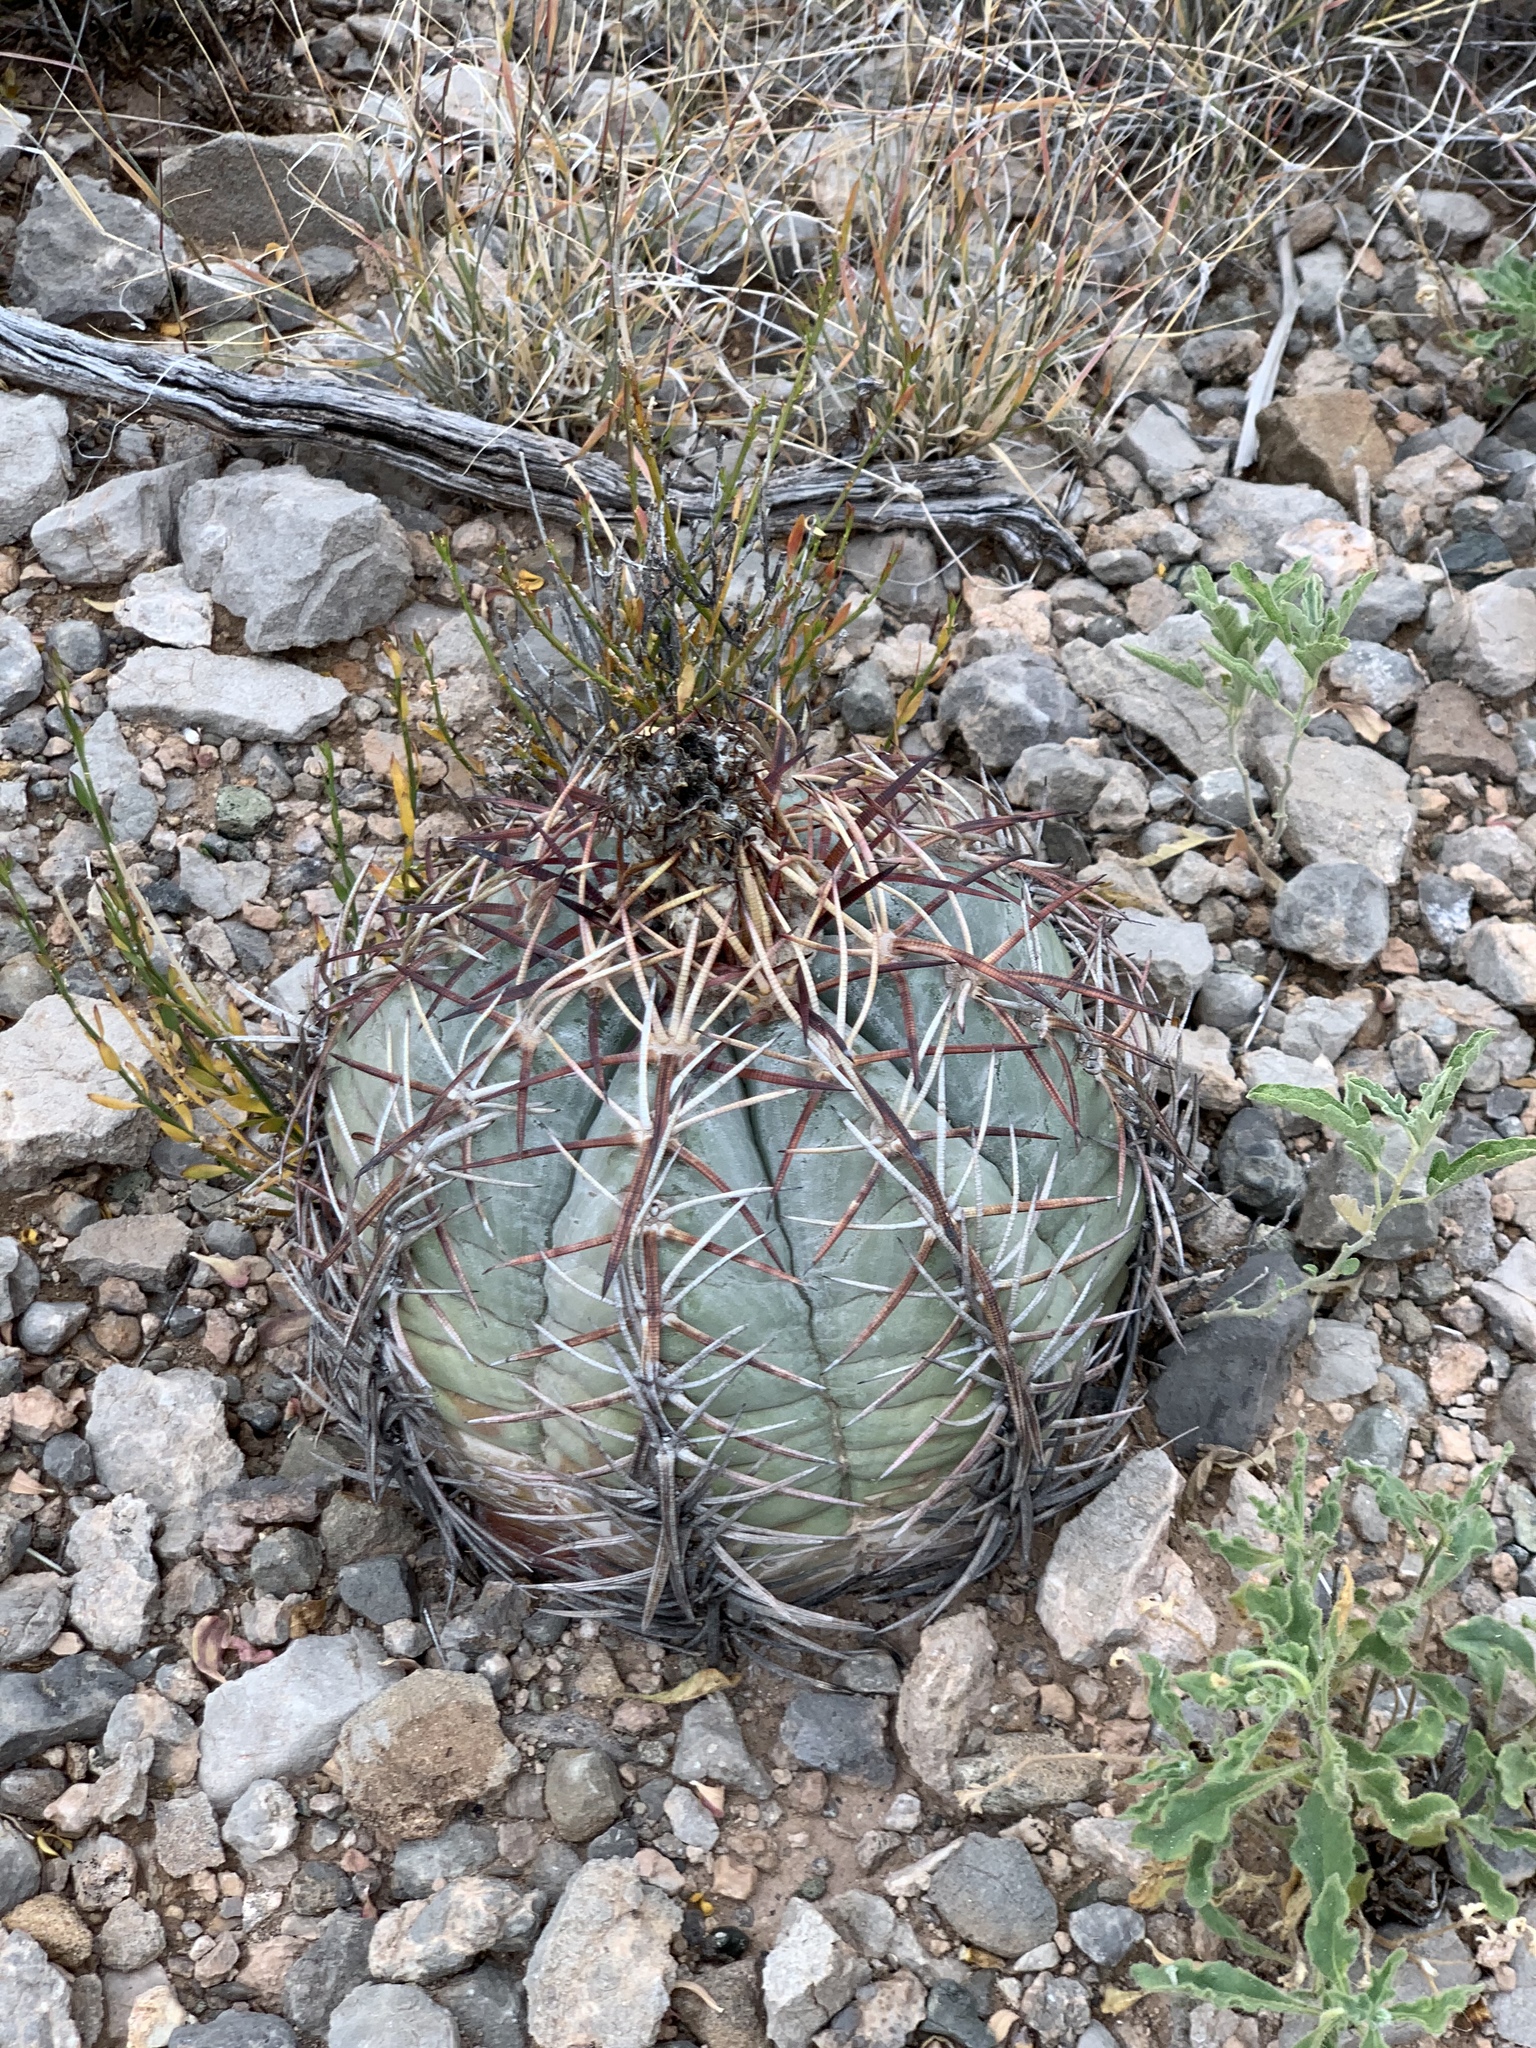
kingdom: Plantae
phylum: Tracheophyta
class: Magnoliopsida
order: Caryophyllales
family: Cactaceae
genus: Echinocactus
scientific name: Echinocactus horizonthalonius
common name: Devilshead
